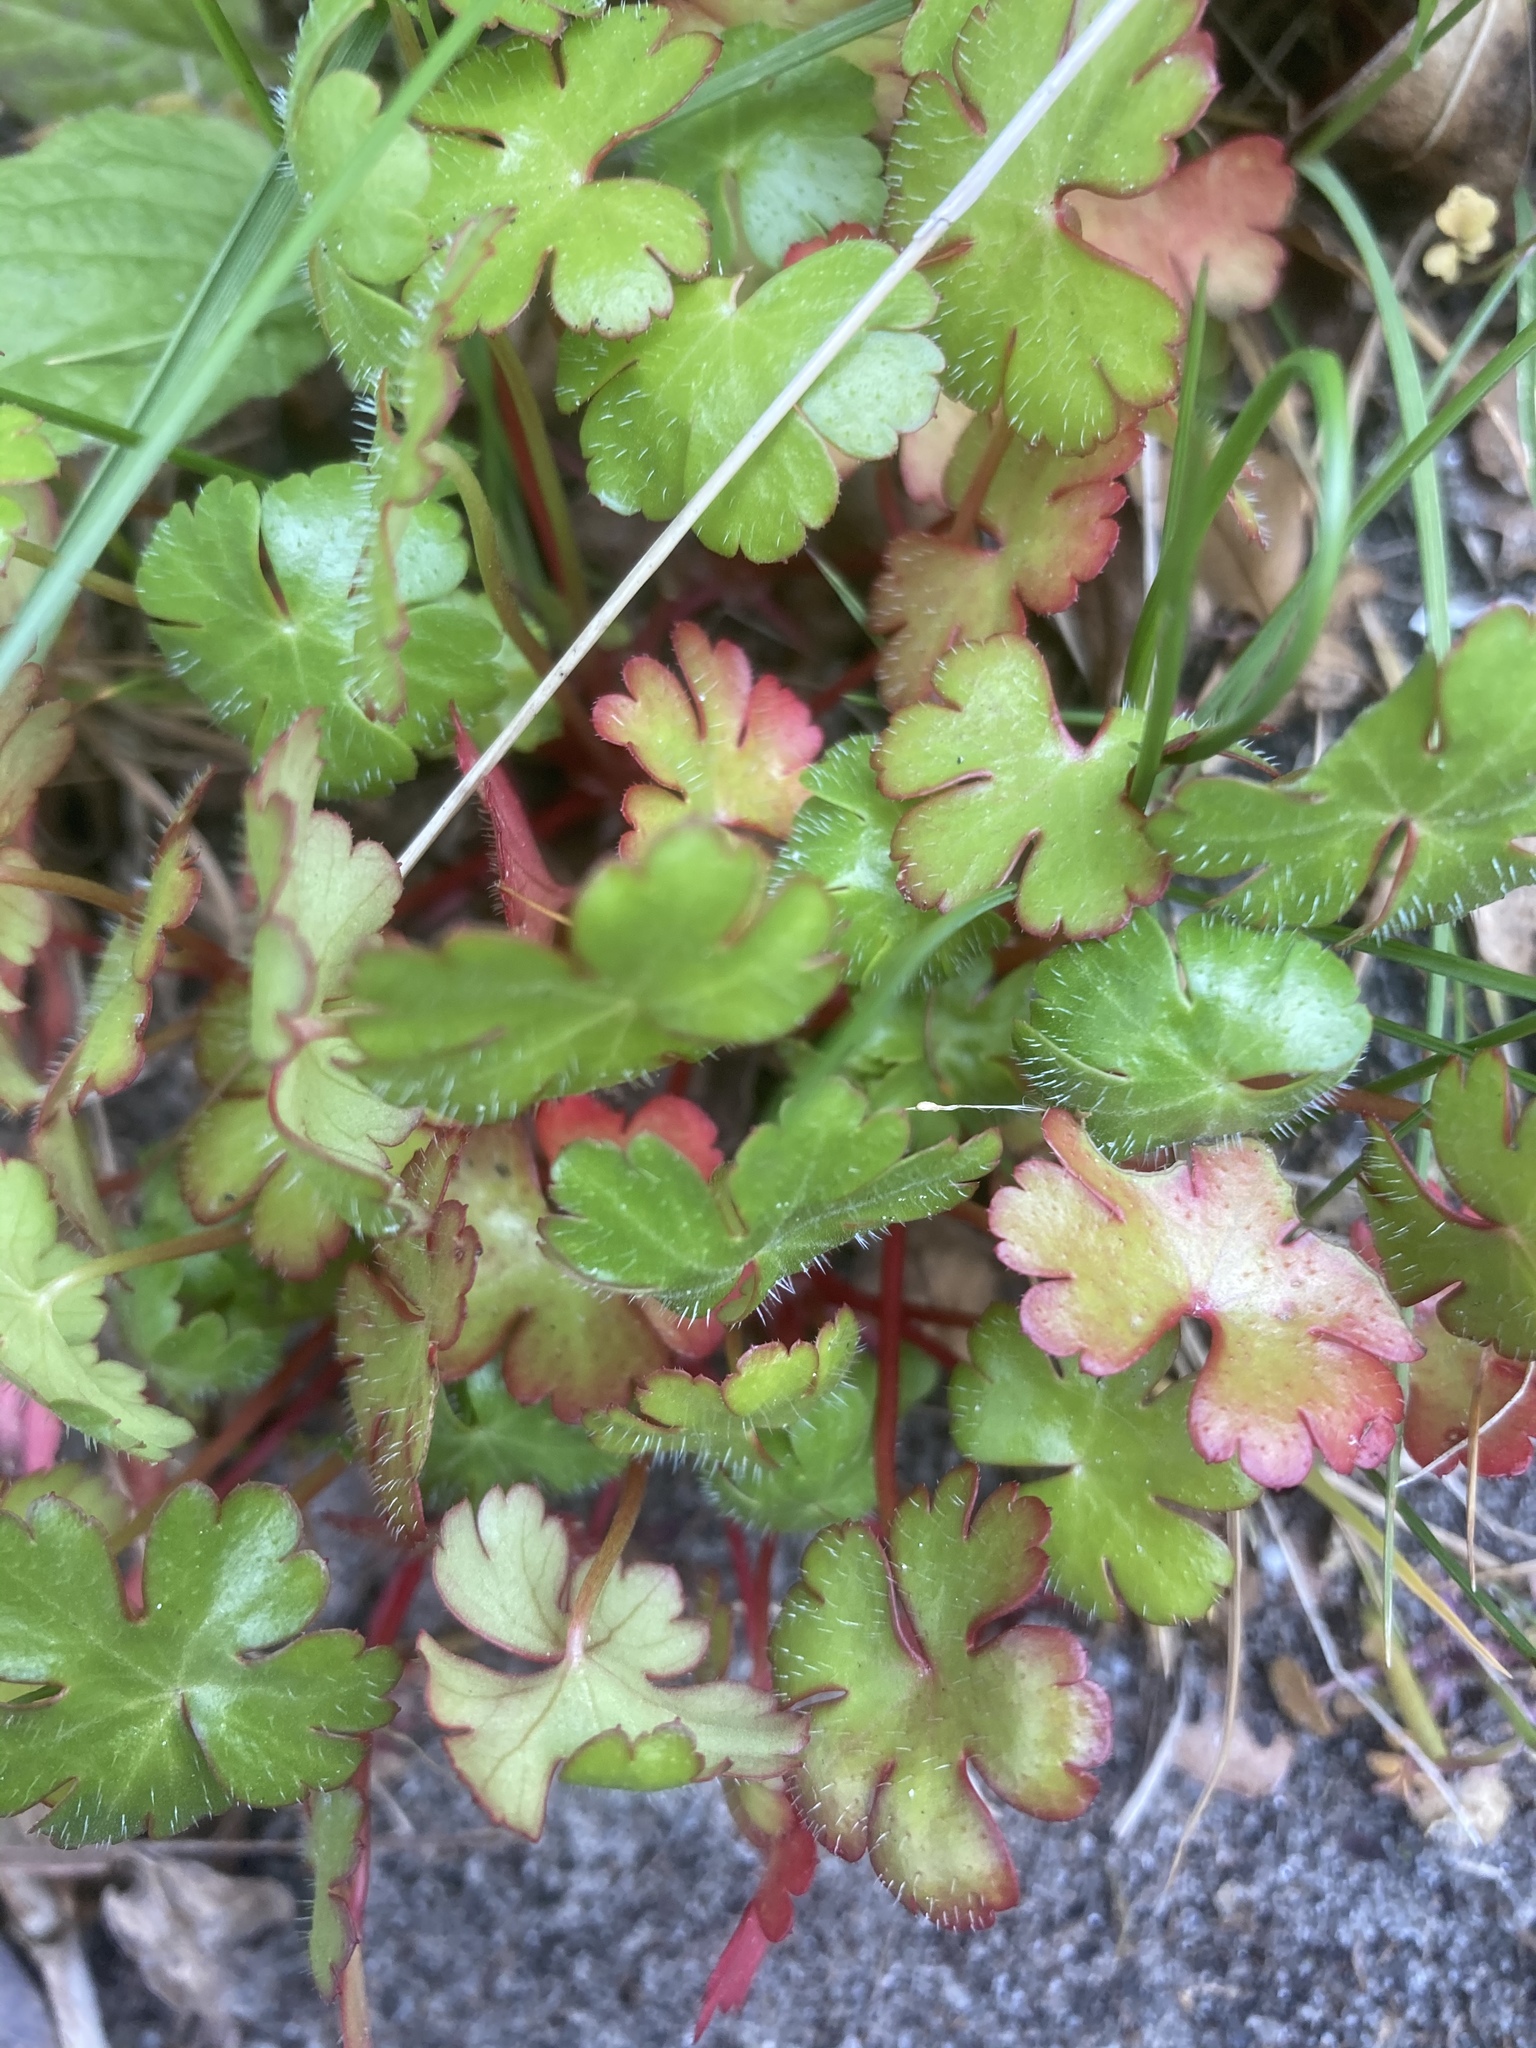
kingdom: Plantae
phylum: Tracheophyta
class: Magnoliopsida
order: Geraniales
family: Geraniaceae
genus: Geranium
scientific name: Geranium lucidum
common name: Shining crane's-bill
